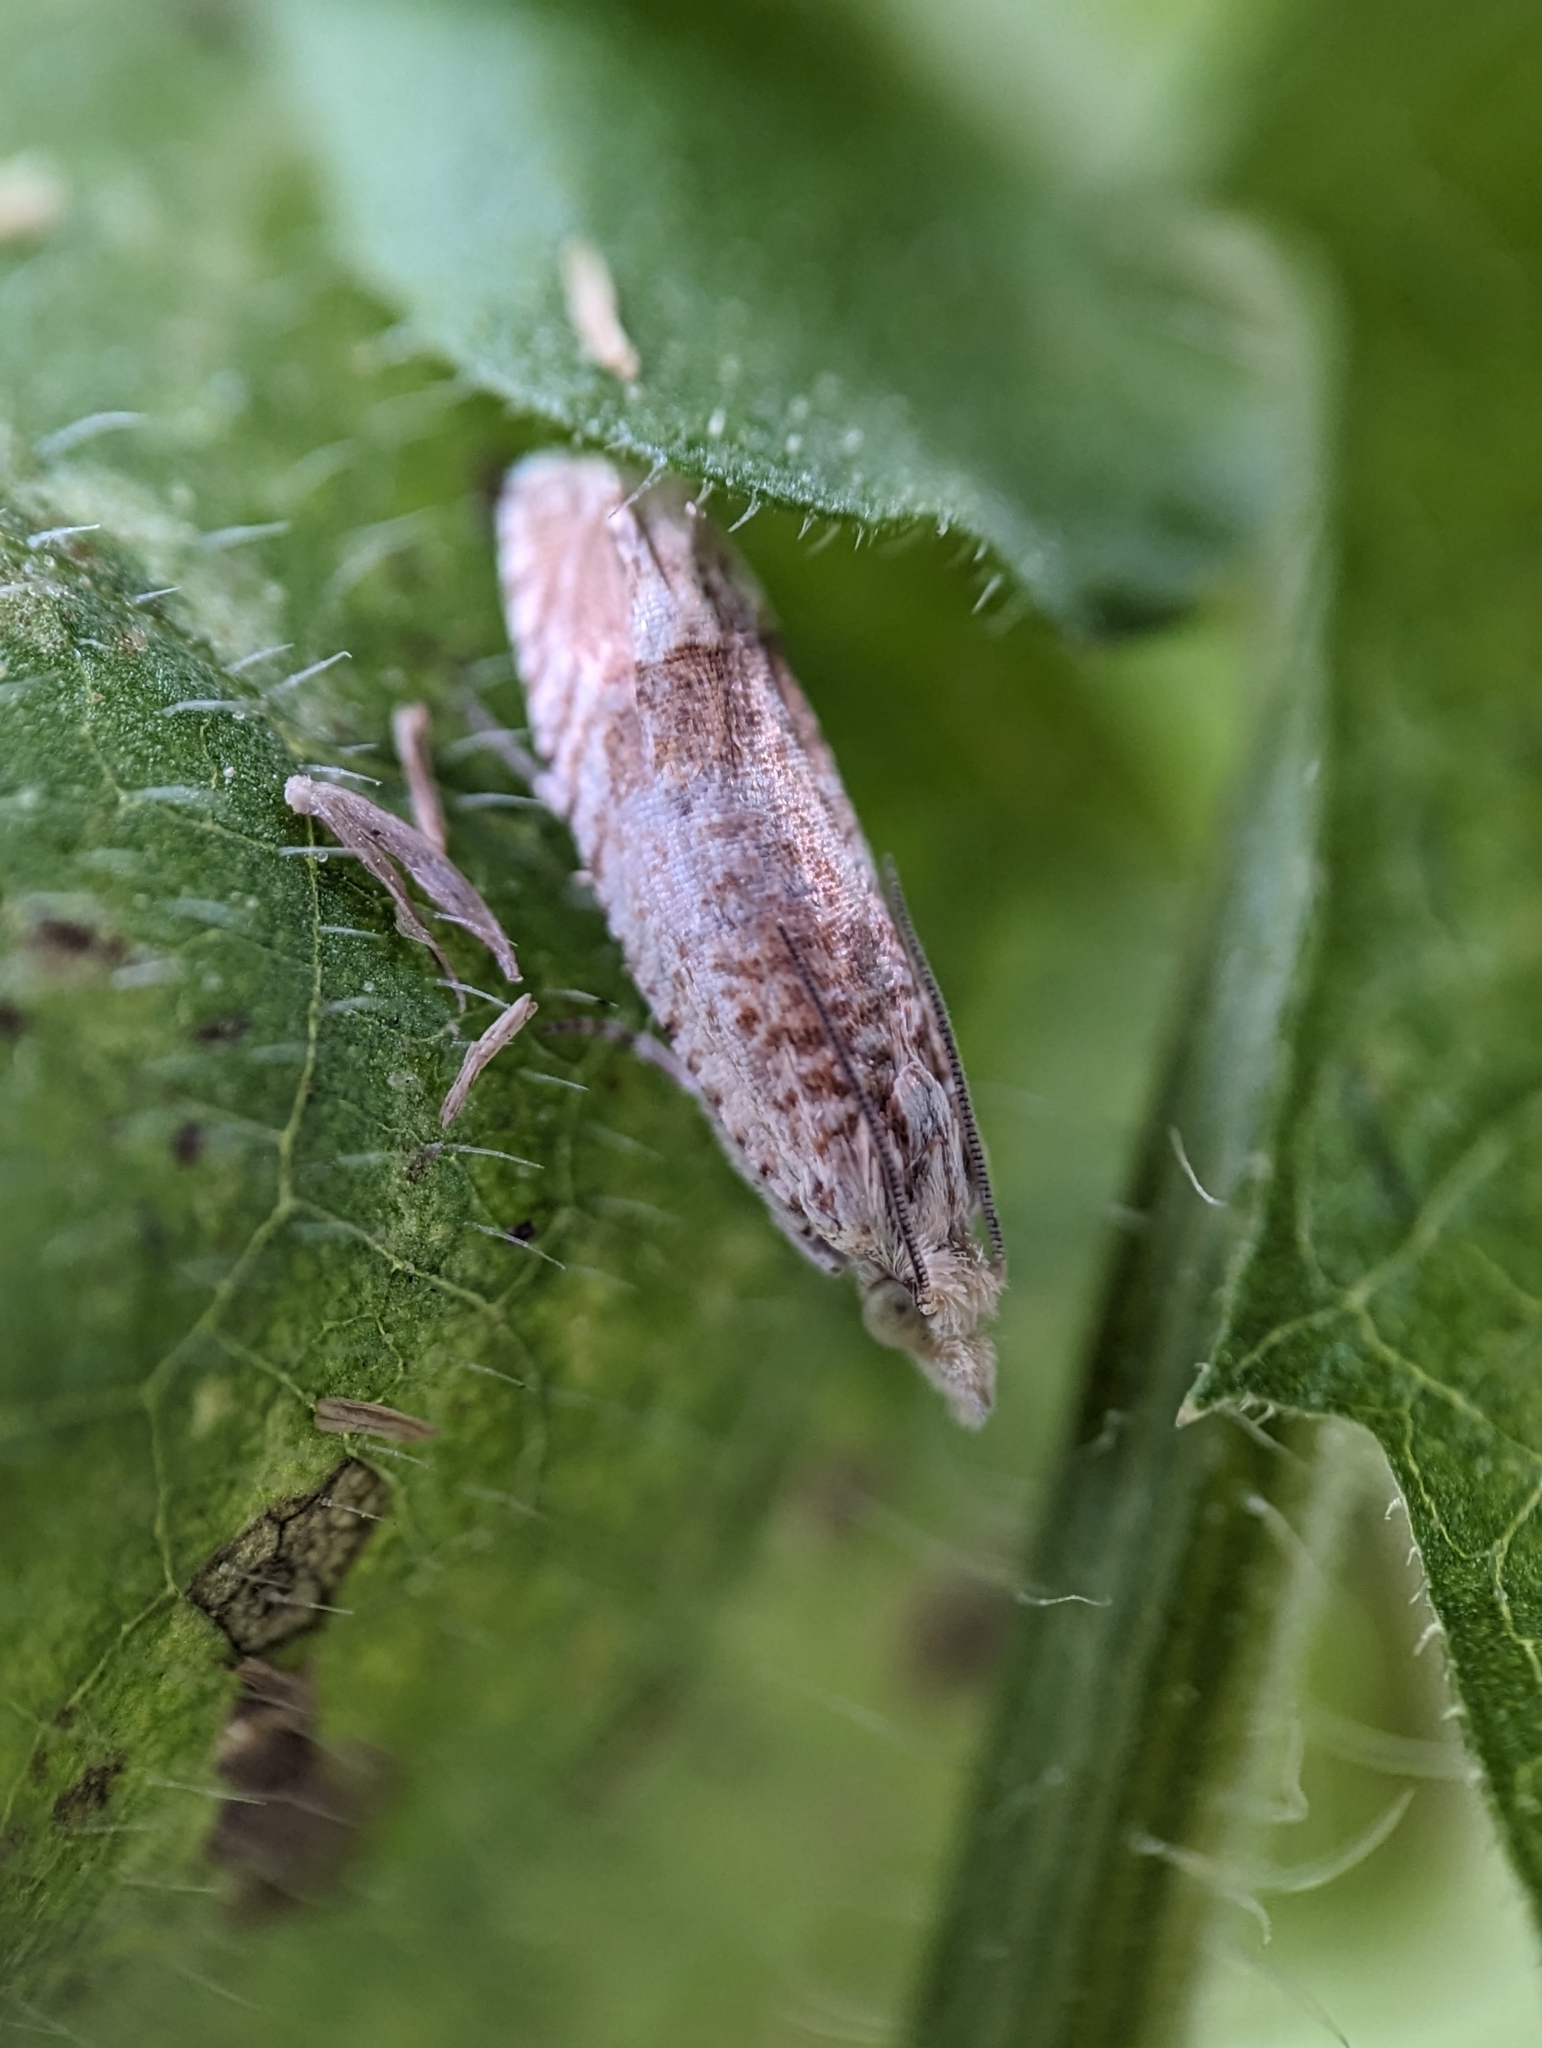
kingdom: Animalia
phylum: Arthropoda
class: Insecta
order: Lepidoptera
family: Tortricidae
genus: Eucosma
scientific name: Eucosma ochrocephala
